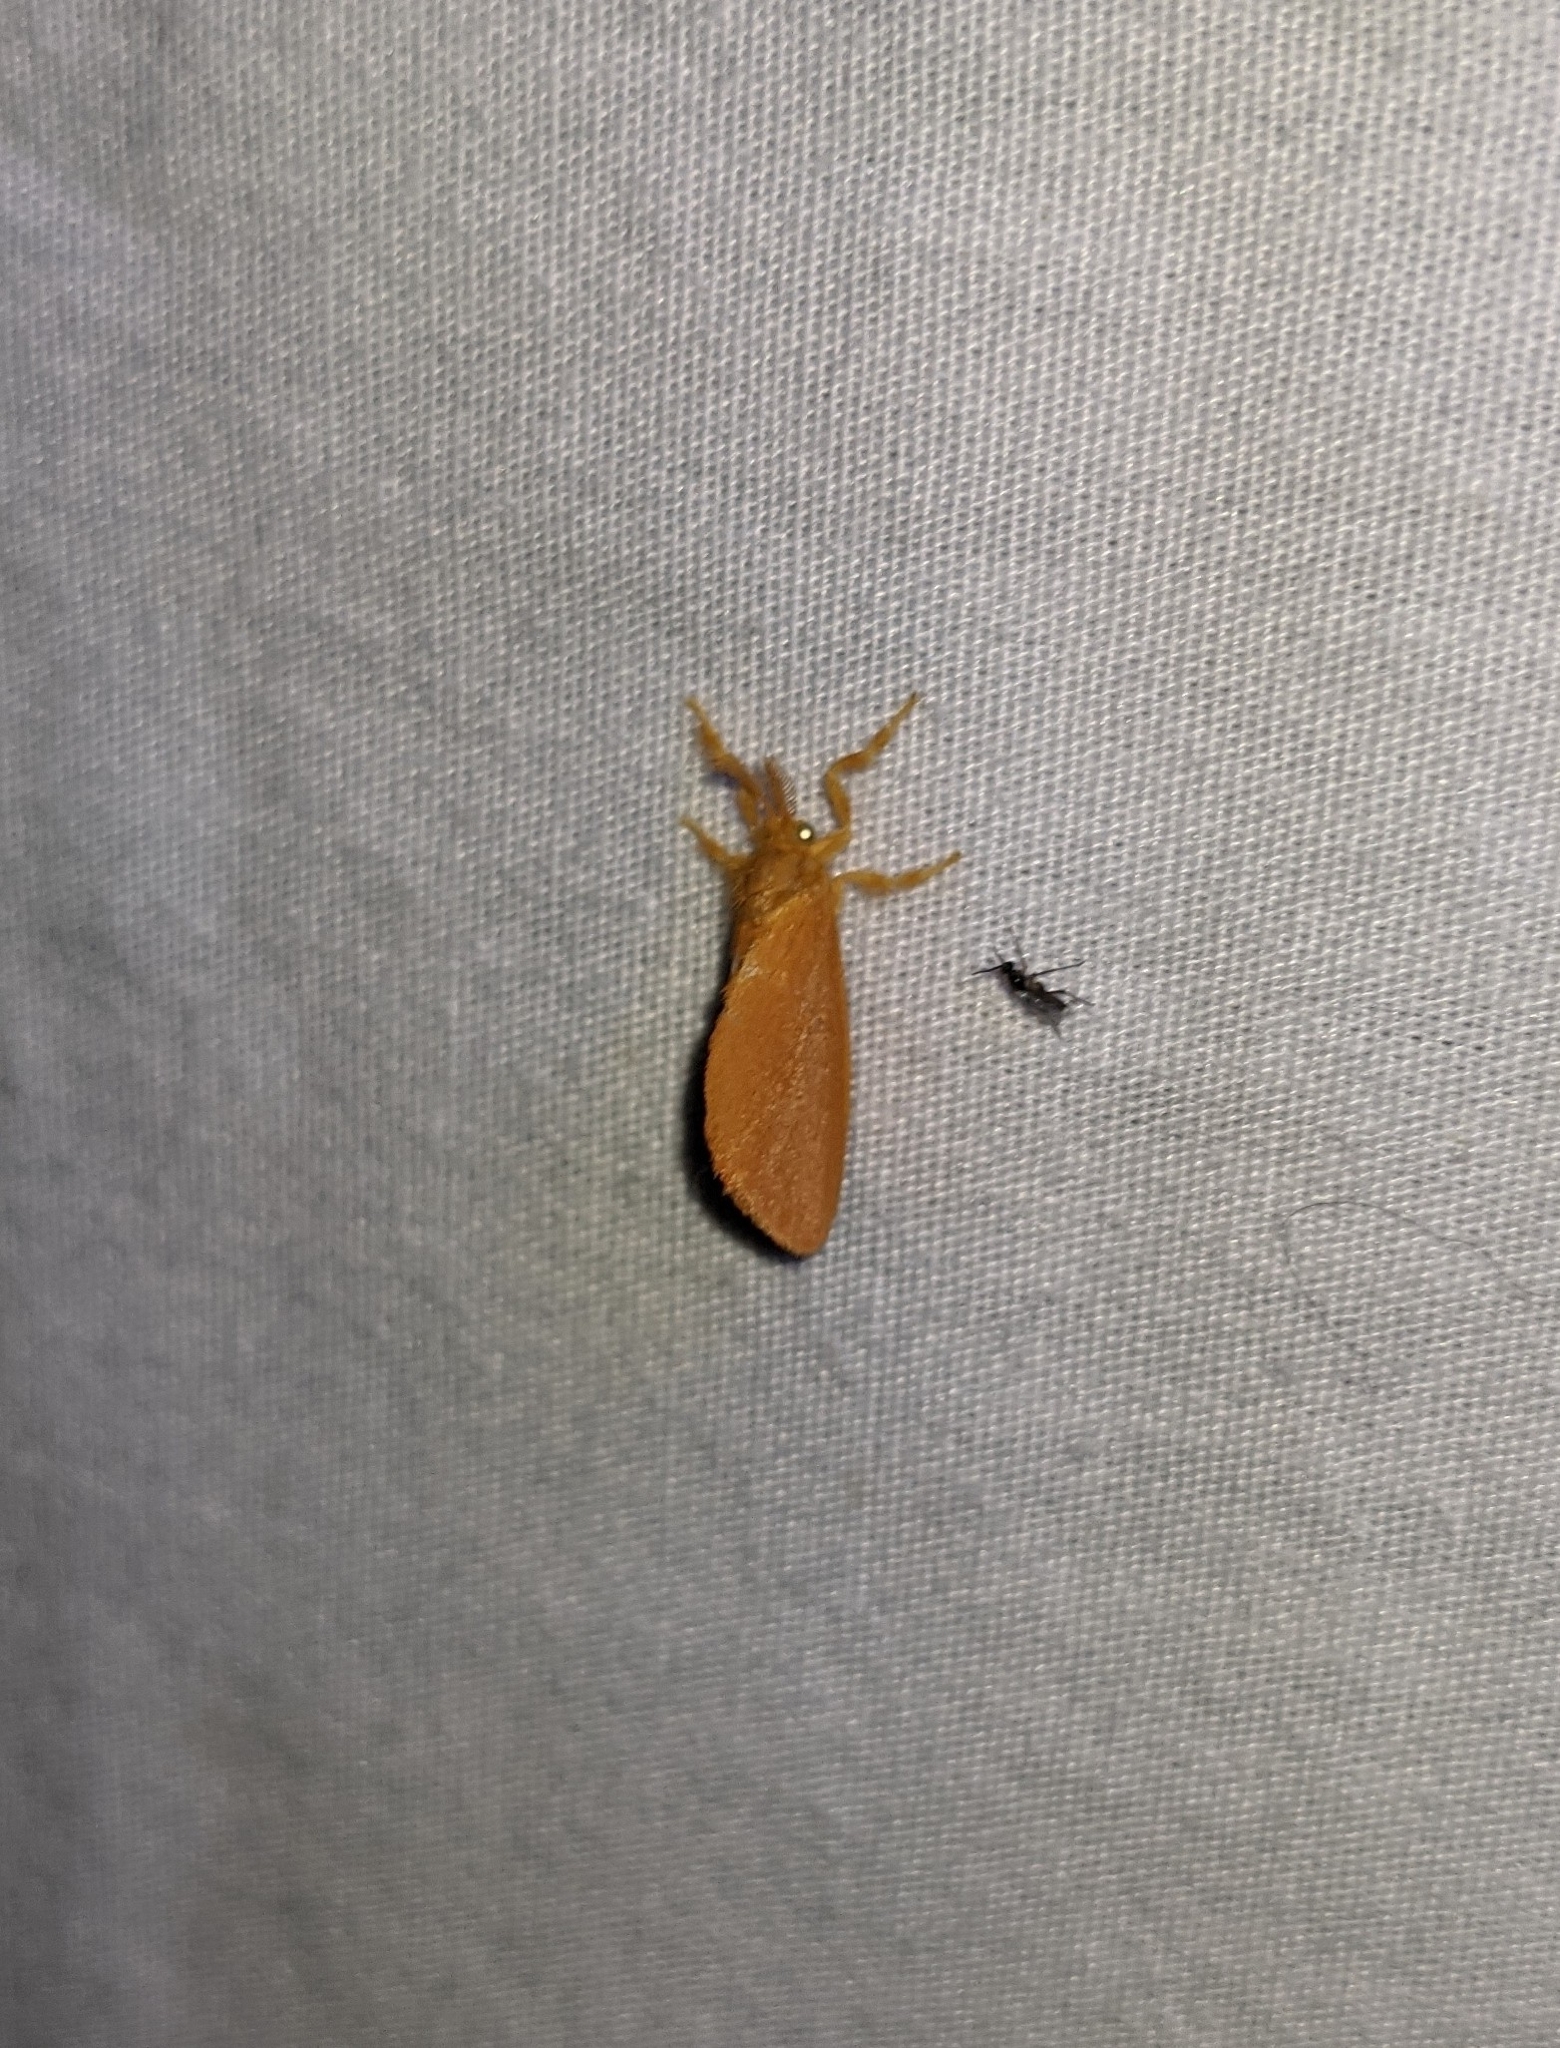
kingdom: Animalia
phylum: Arthropoda
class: Insecta
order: Lepidoptera
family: Dalceridae
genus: Dalcerides
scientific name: Dalcerides ingenita
